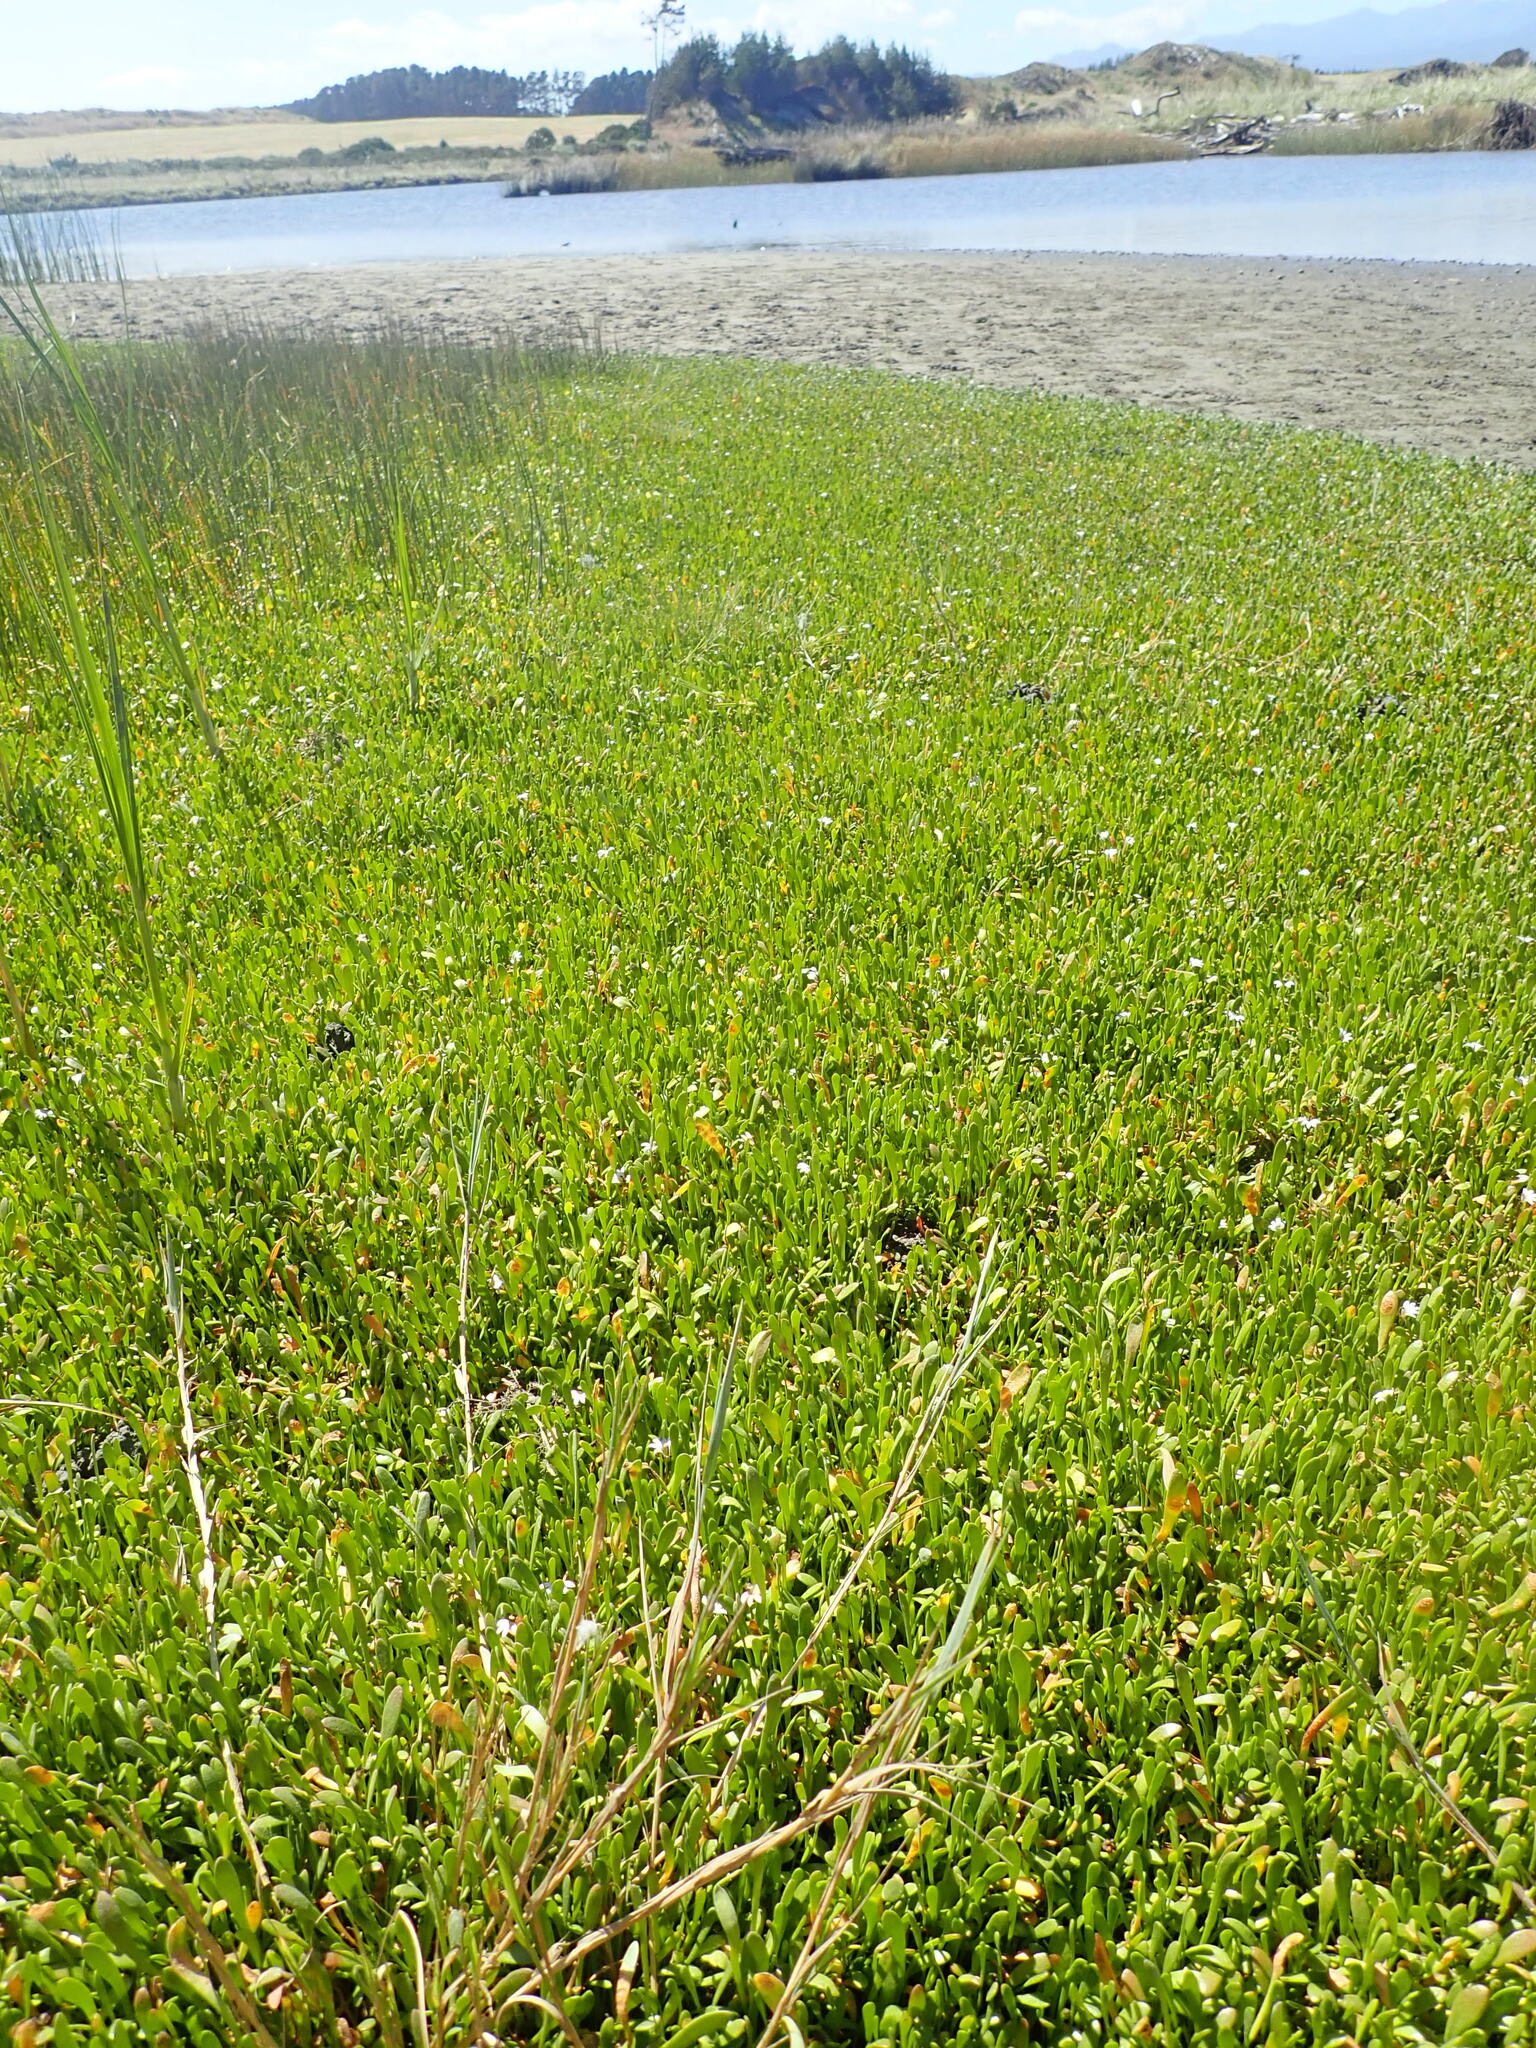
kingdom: Plantae
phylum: Tracheophyta
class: Magnoliopsida
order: Asterales
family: Goodeniaceae
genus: Goodenia
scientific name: Goodenia radicans
